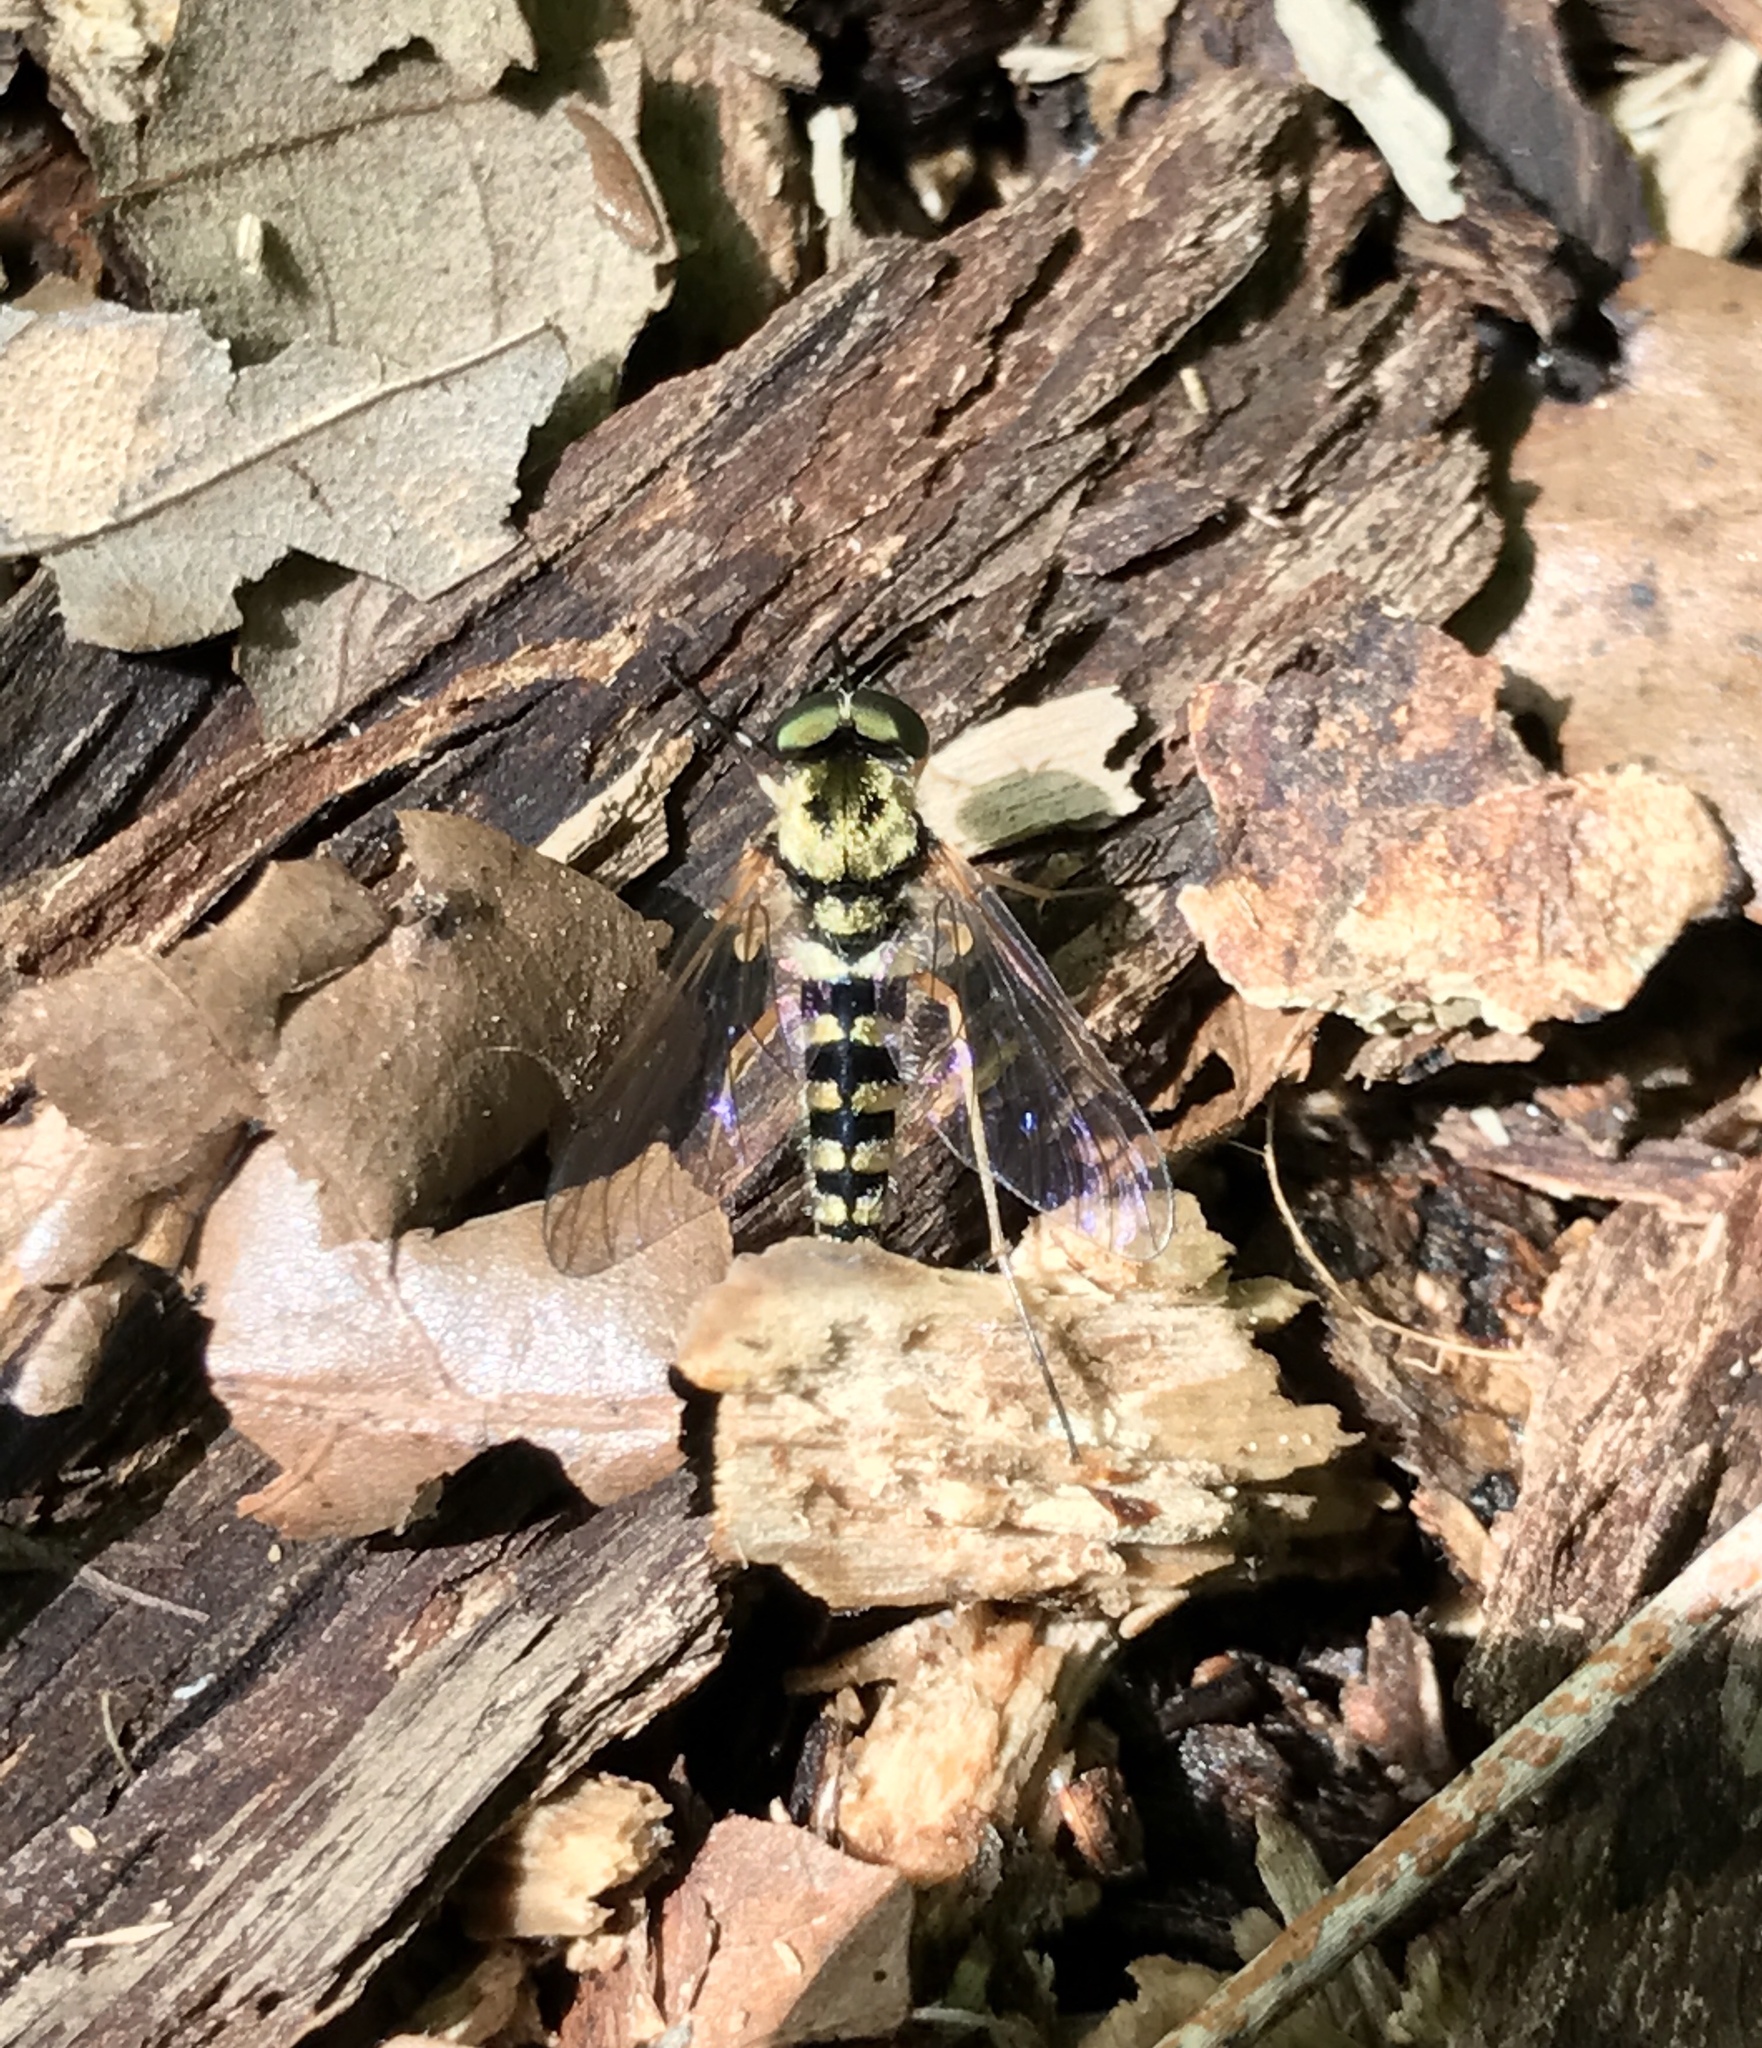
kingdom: Animalia
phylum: Arthropoda
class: Insecta
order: Diptera
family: Rhagionidae
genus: Chrysopilus
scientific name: Chrysopilus ornatus
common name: Ornate snipe fly
